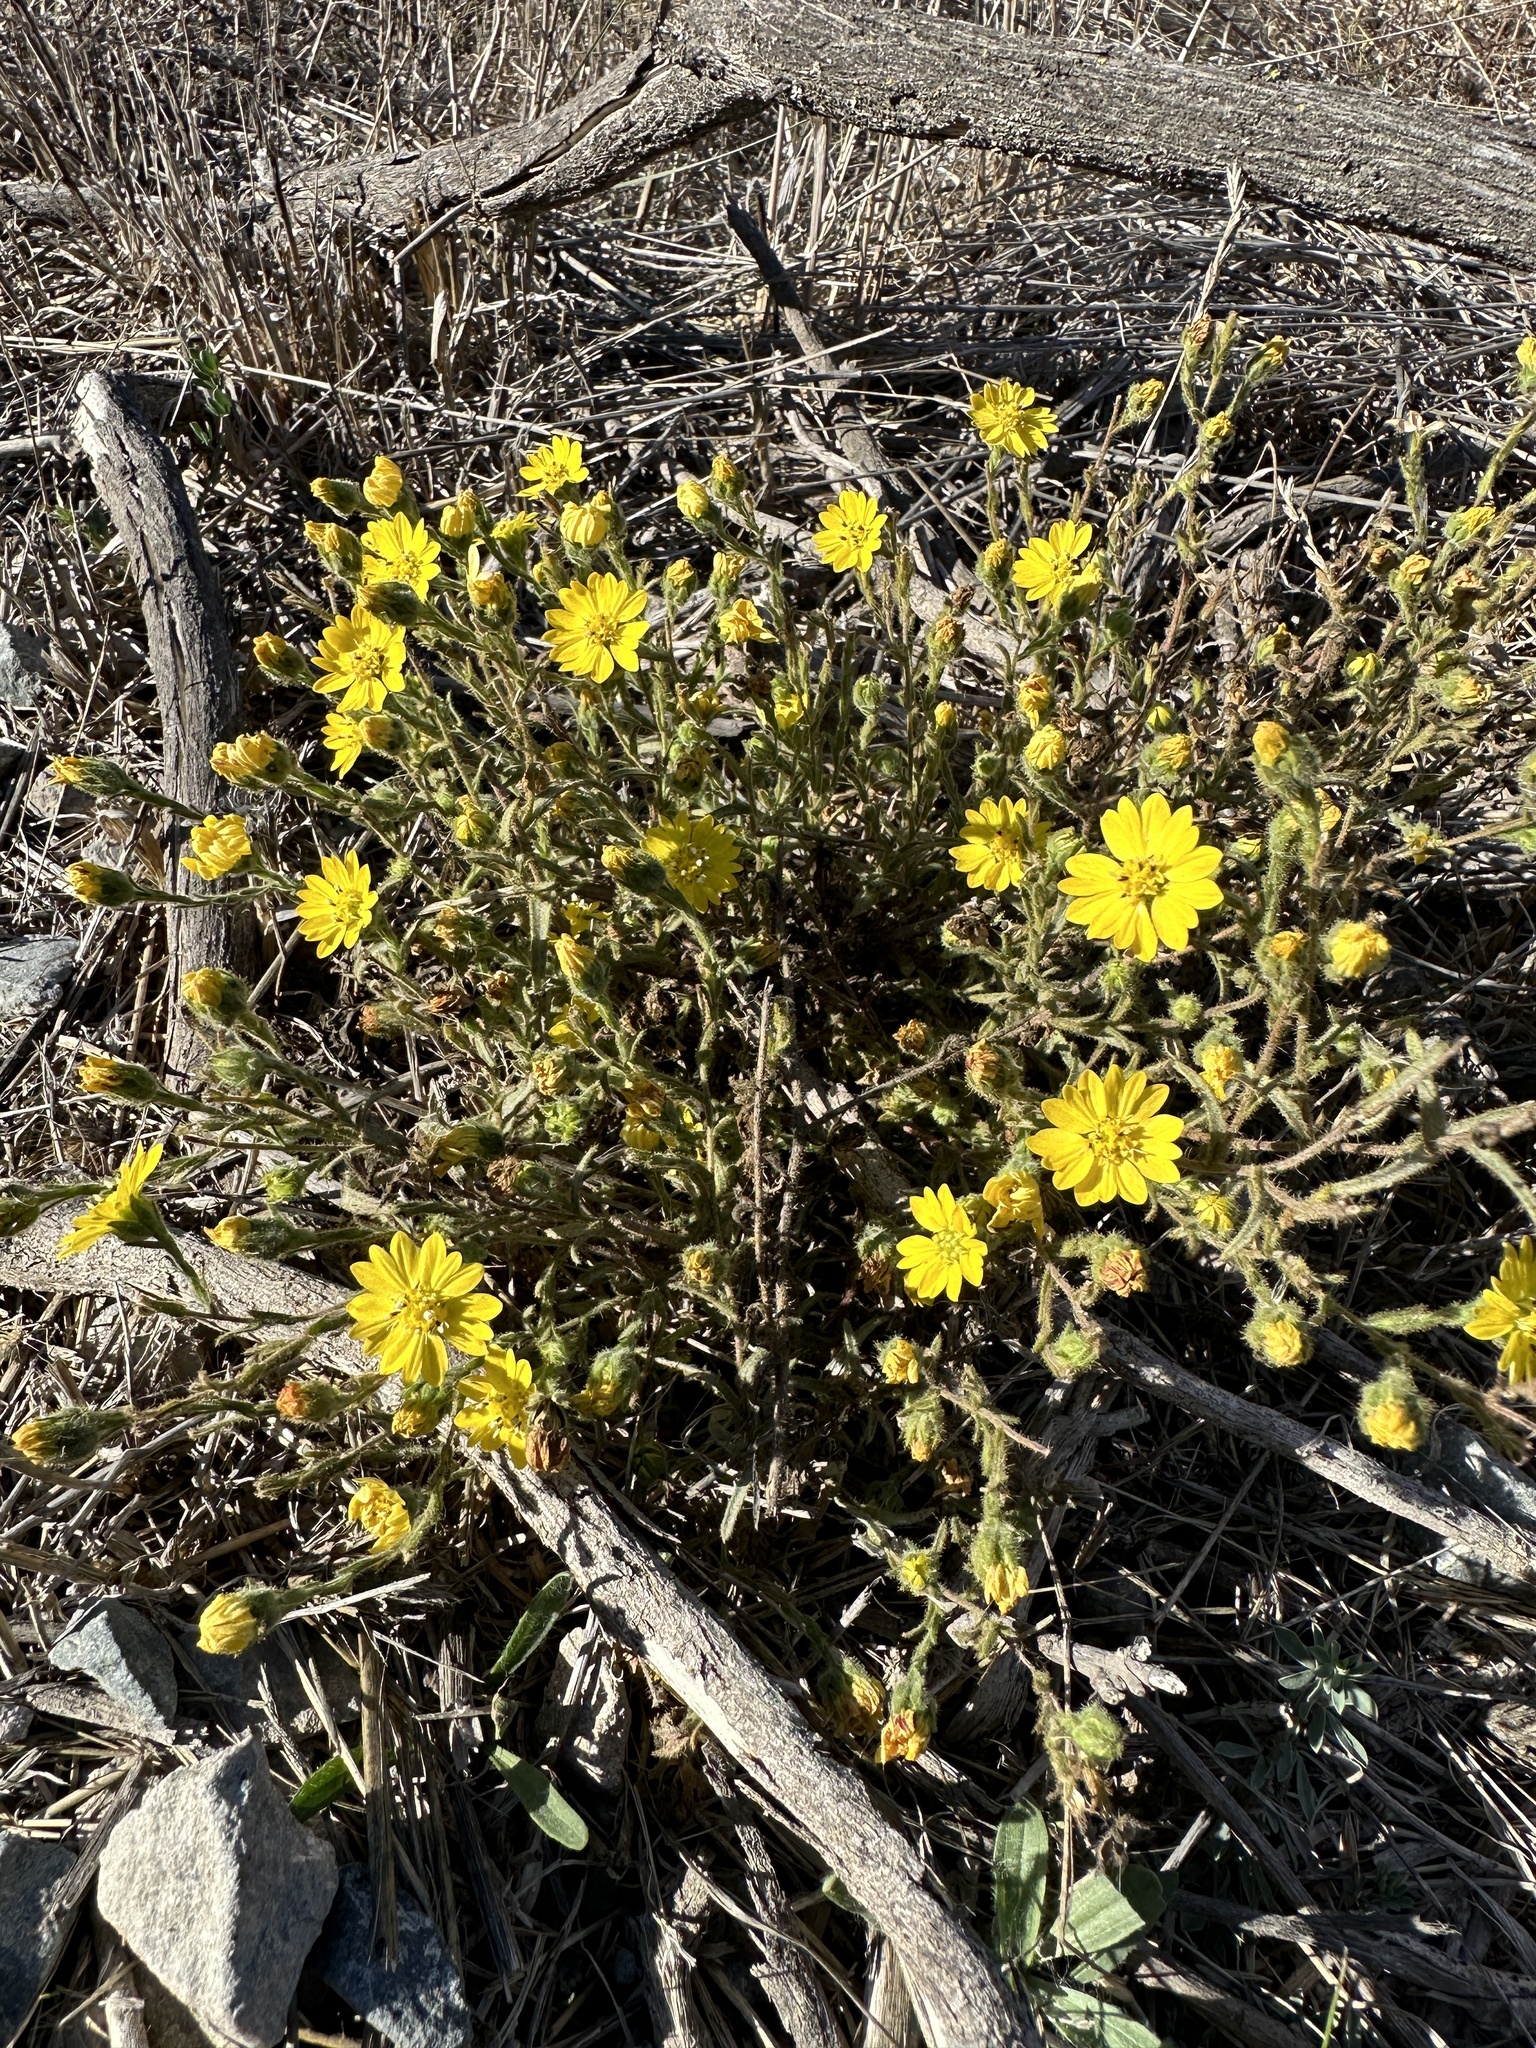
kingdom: Plantae
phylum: Tracheophyta
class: Magnoliopsida
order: Asterales
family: Asteraceae
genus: Hemizonia
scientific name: Hemizonia congesta
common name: Hayfield tarweed
